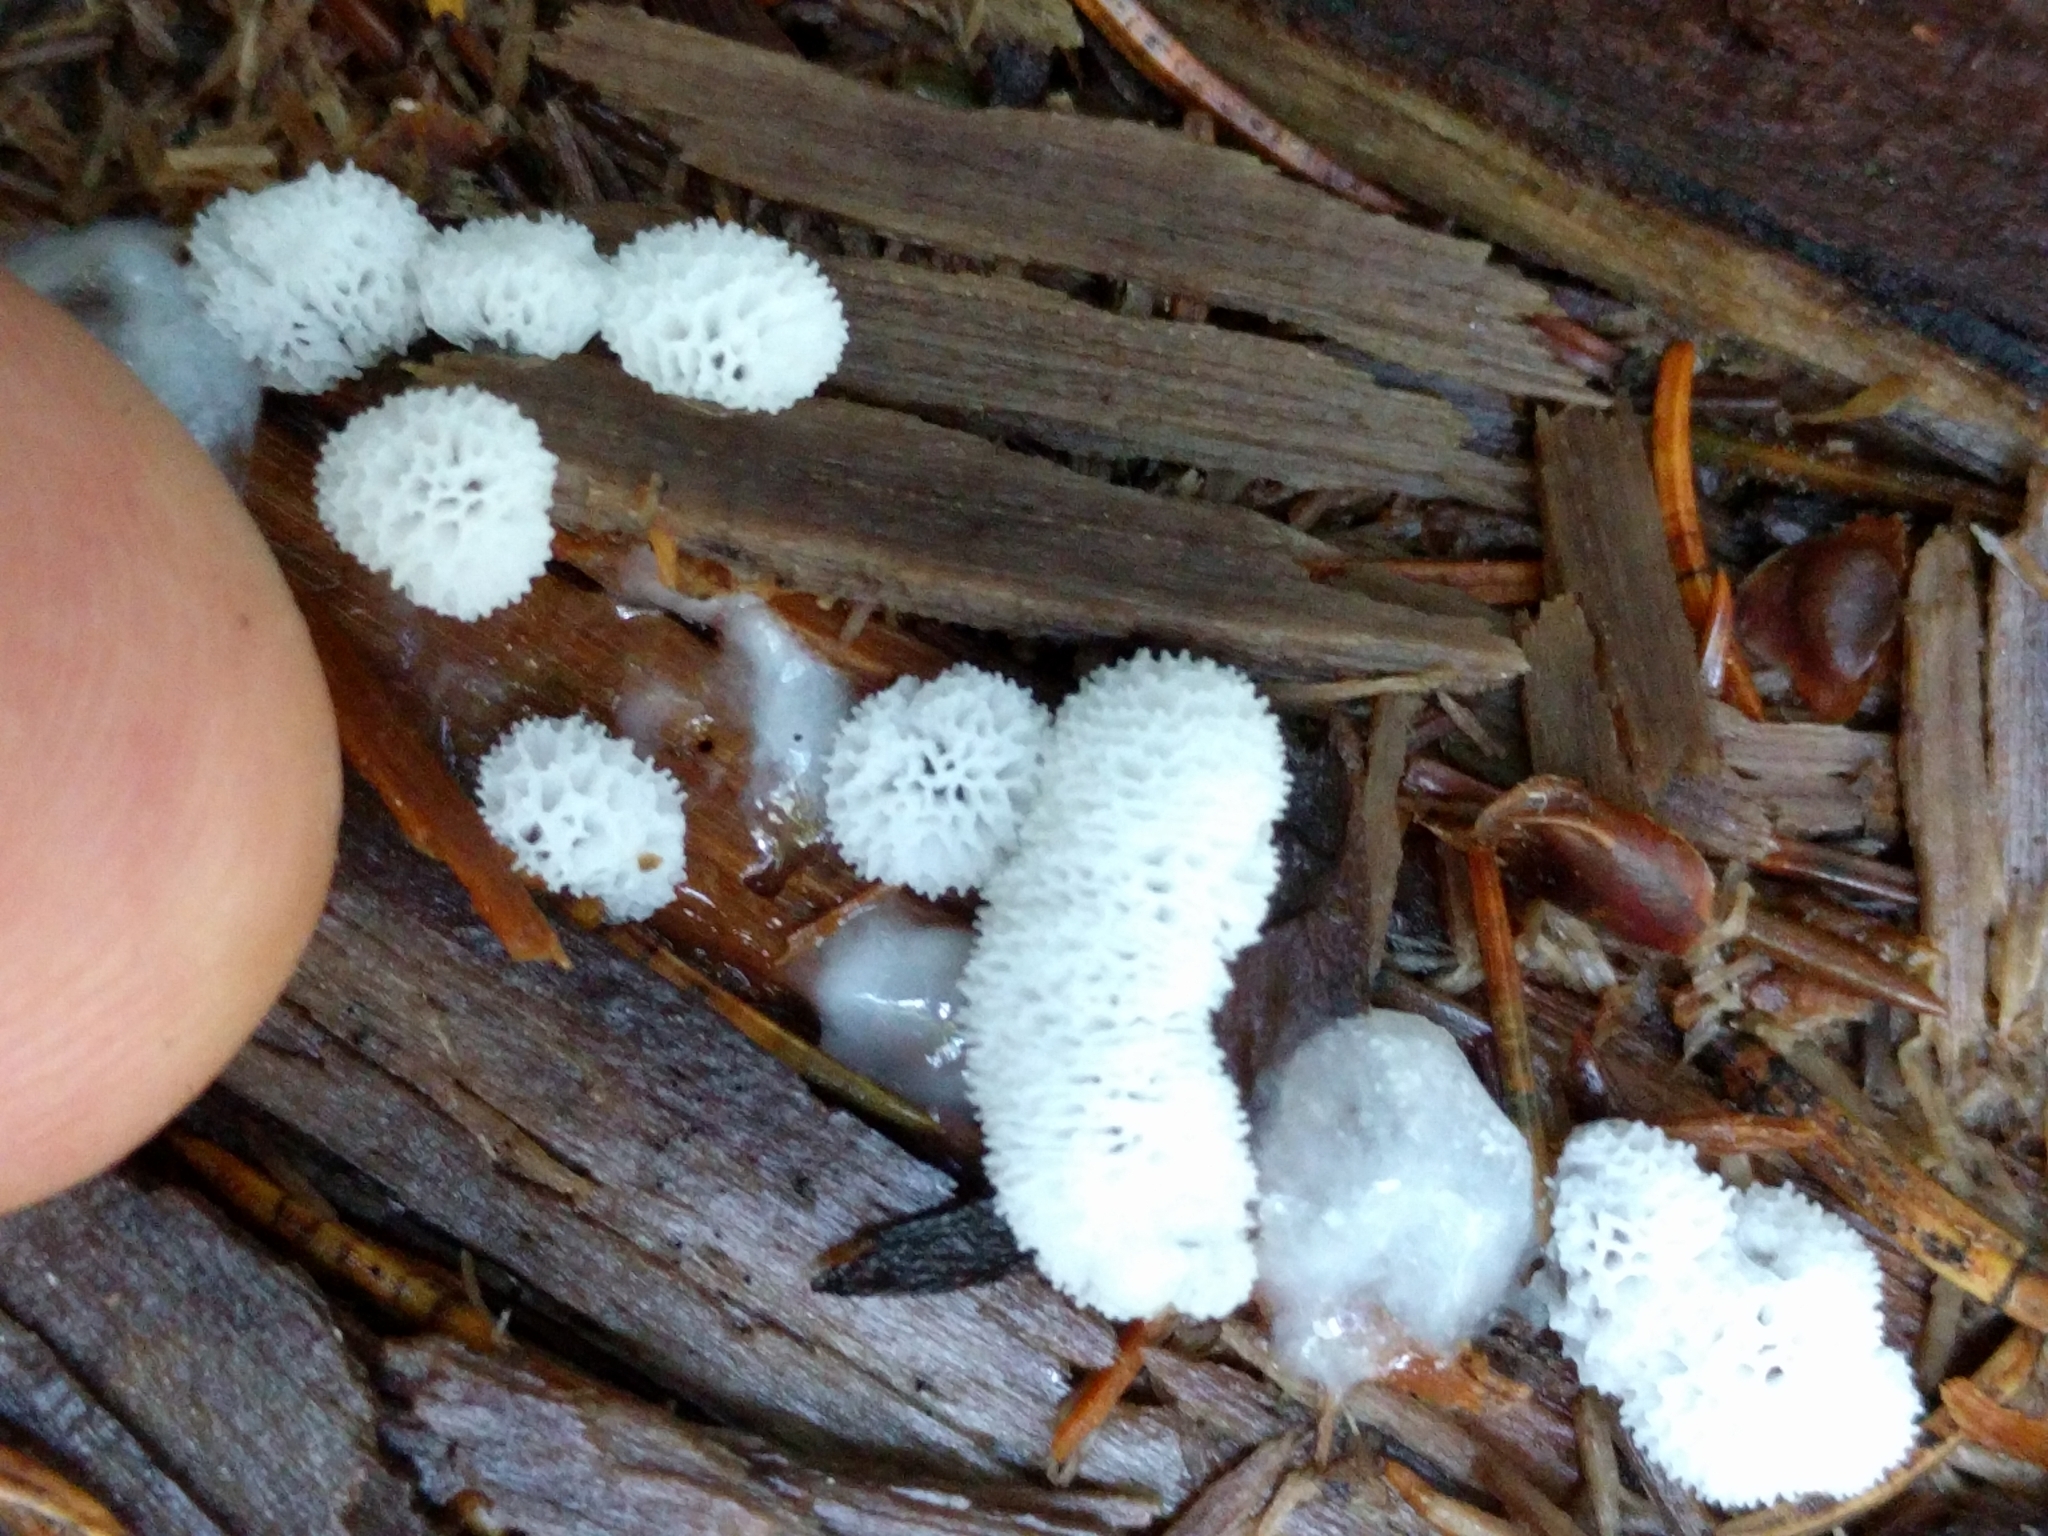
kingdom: Protozoa
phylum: Mycetozoa
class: Protosteliomycetes
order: Ceratiomyxales
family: Ceratiomyxaceae
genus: Ceratiomyxa
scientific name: Ceratiomyxa fruticulosa
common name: Honeycomb coral slime mold
